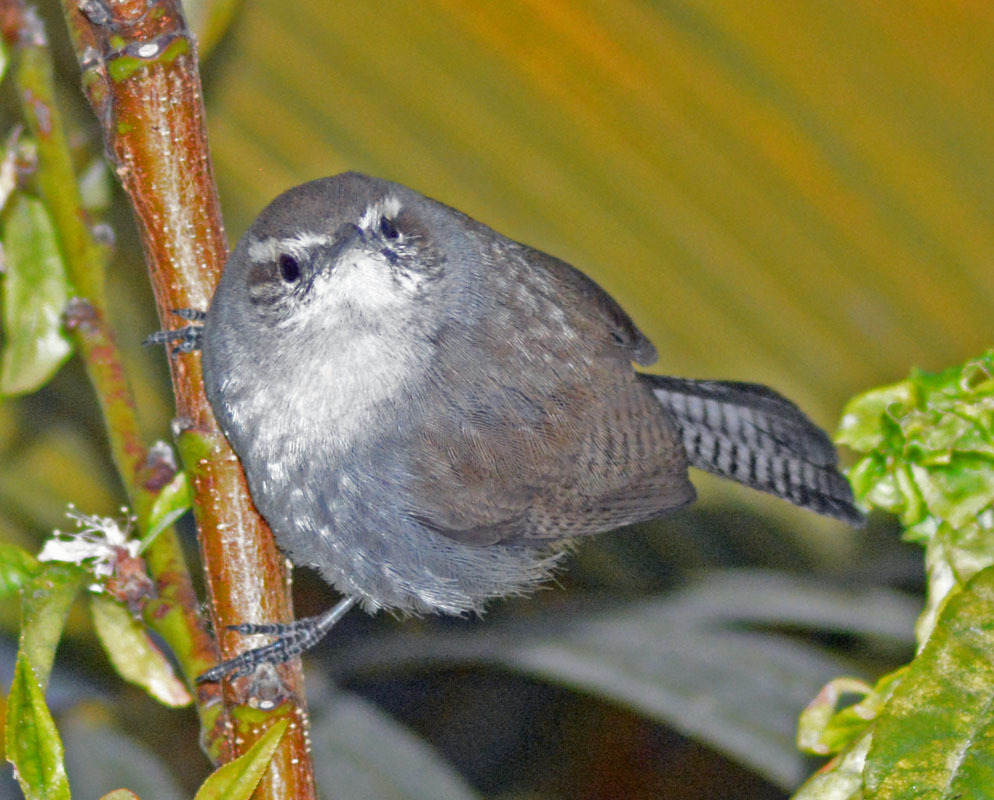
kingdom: Animalia
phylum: Chordata
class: Aves
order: Passeriformes
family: Troglodytidae
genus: Thryomanes
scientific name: Thryomanes bewickii
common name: Bewick's wren
